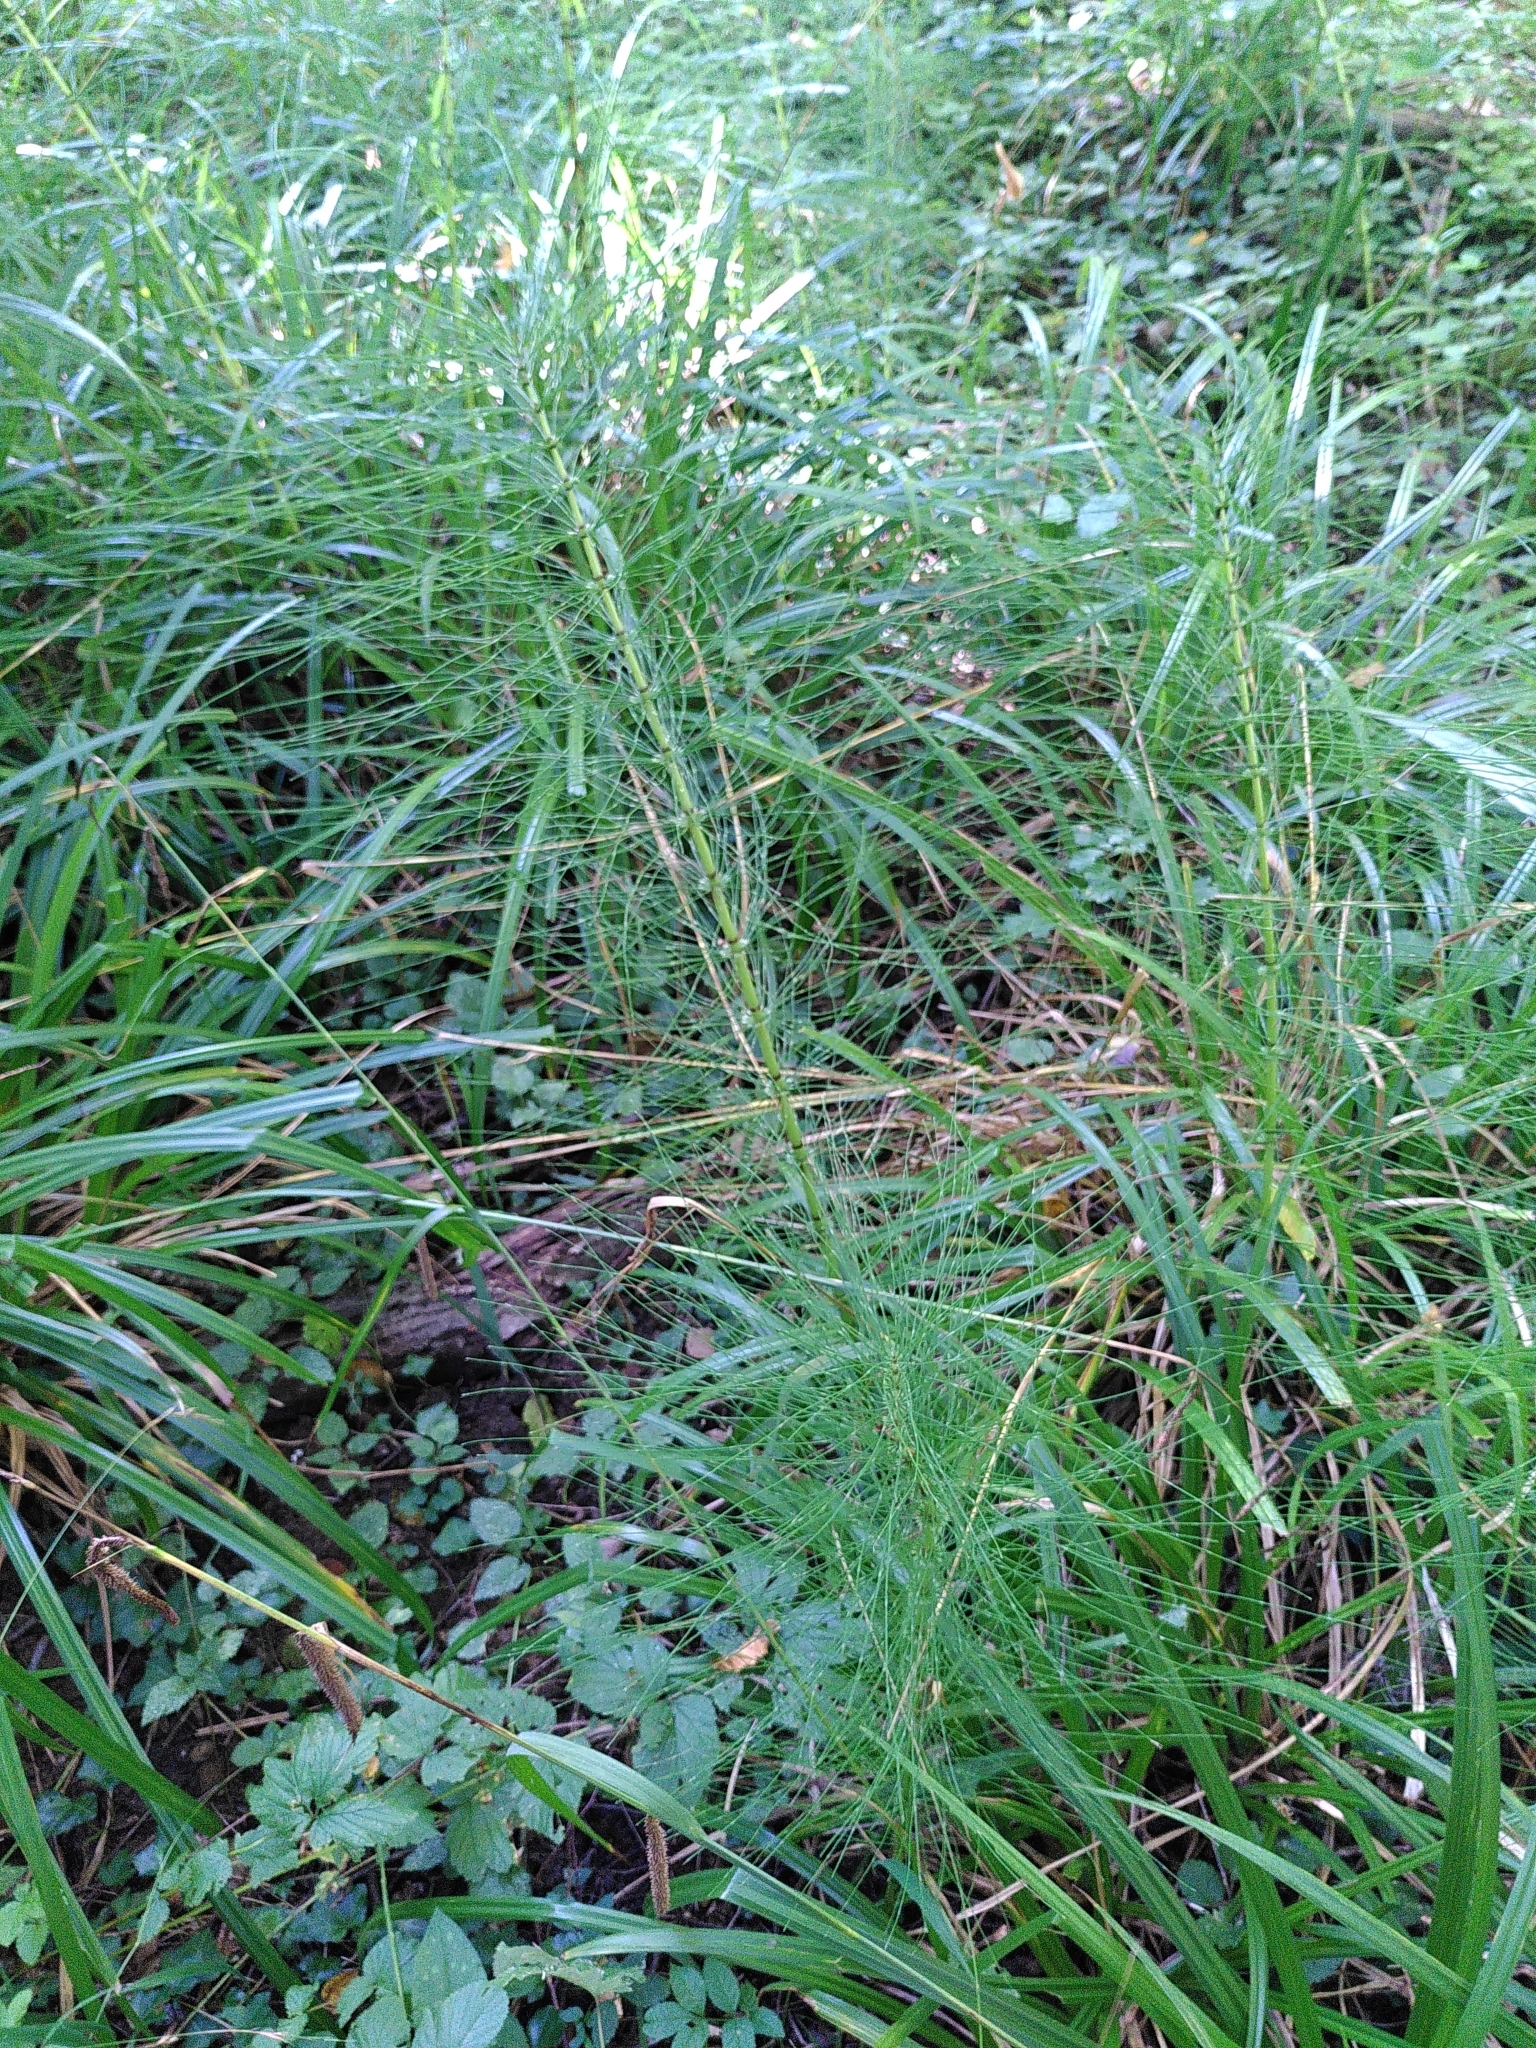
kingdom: Plantae
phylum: Tracheophyta
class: Polypodiopsida
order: Equisetales
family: Equisetaceae
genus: Equisetum
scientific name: Equisetum telmateia
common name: Great horsetail
